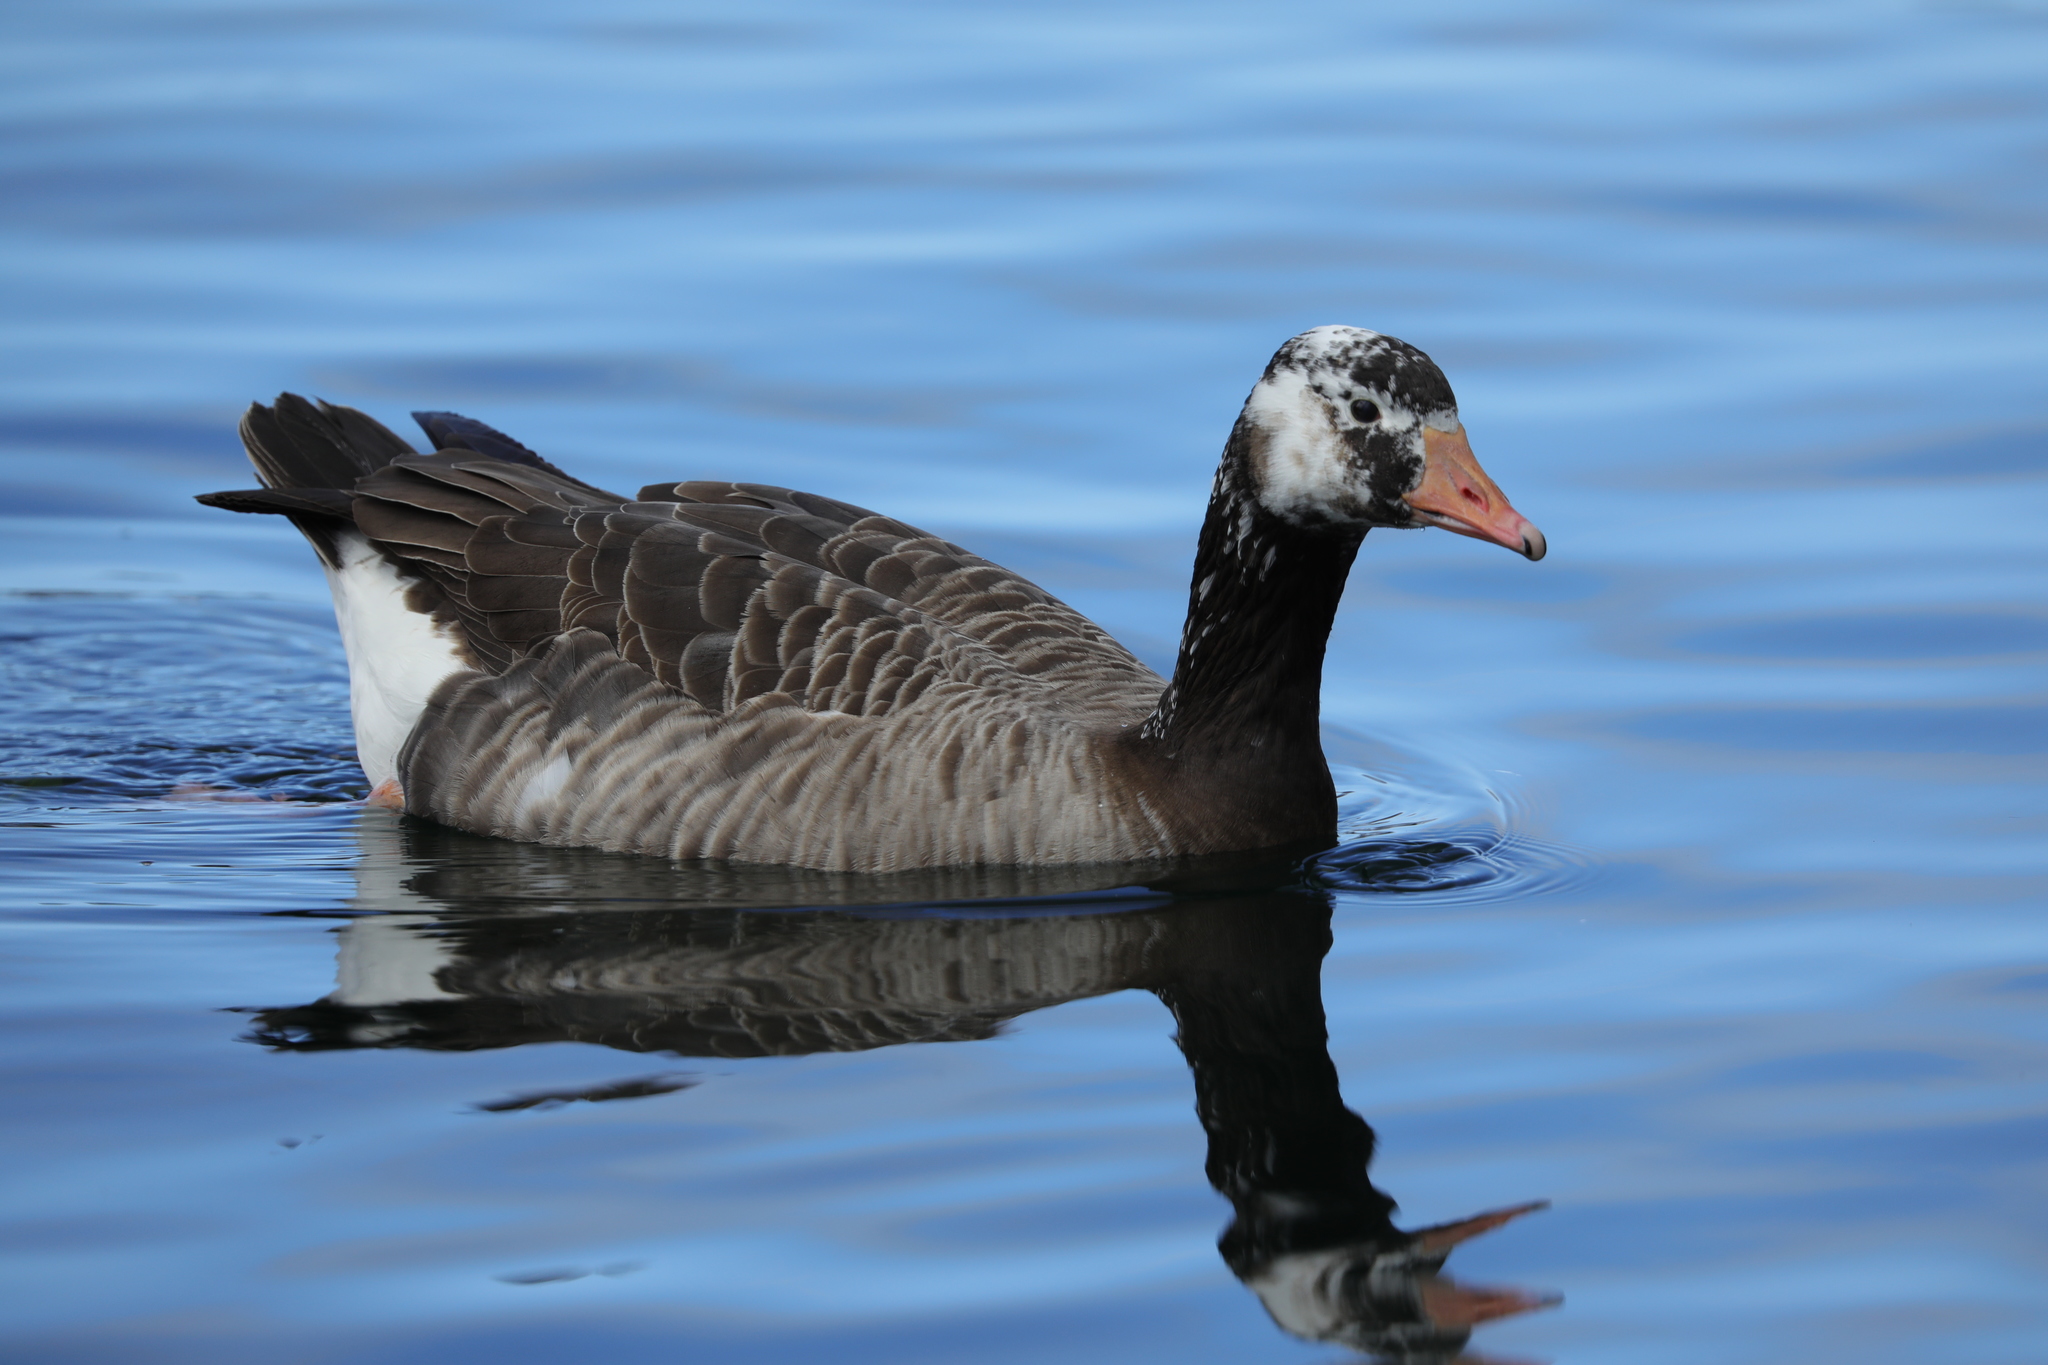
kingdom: Animalia
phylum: Chordata
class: Aves
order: Anseriformes
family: Anatidae
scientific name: Anatidae
